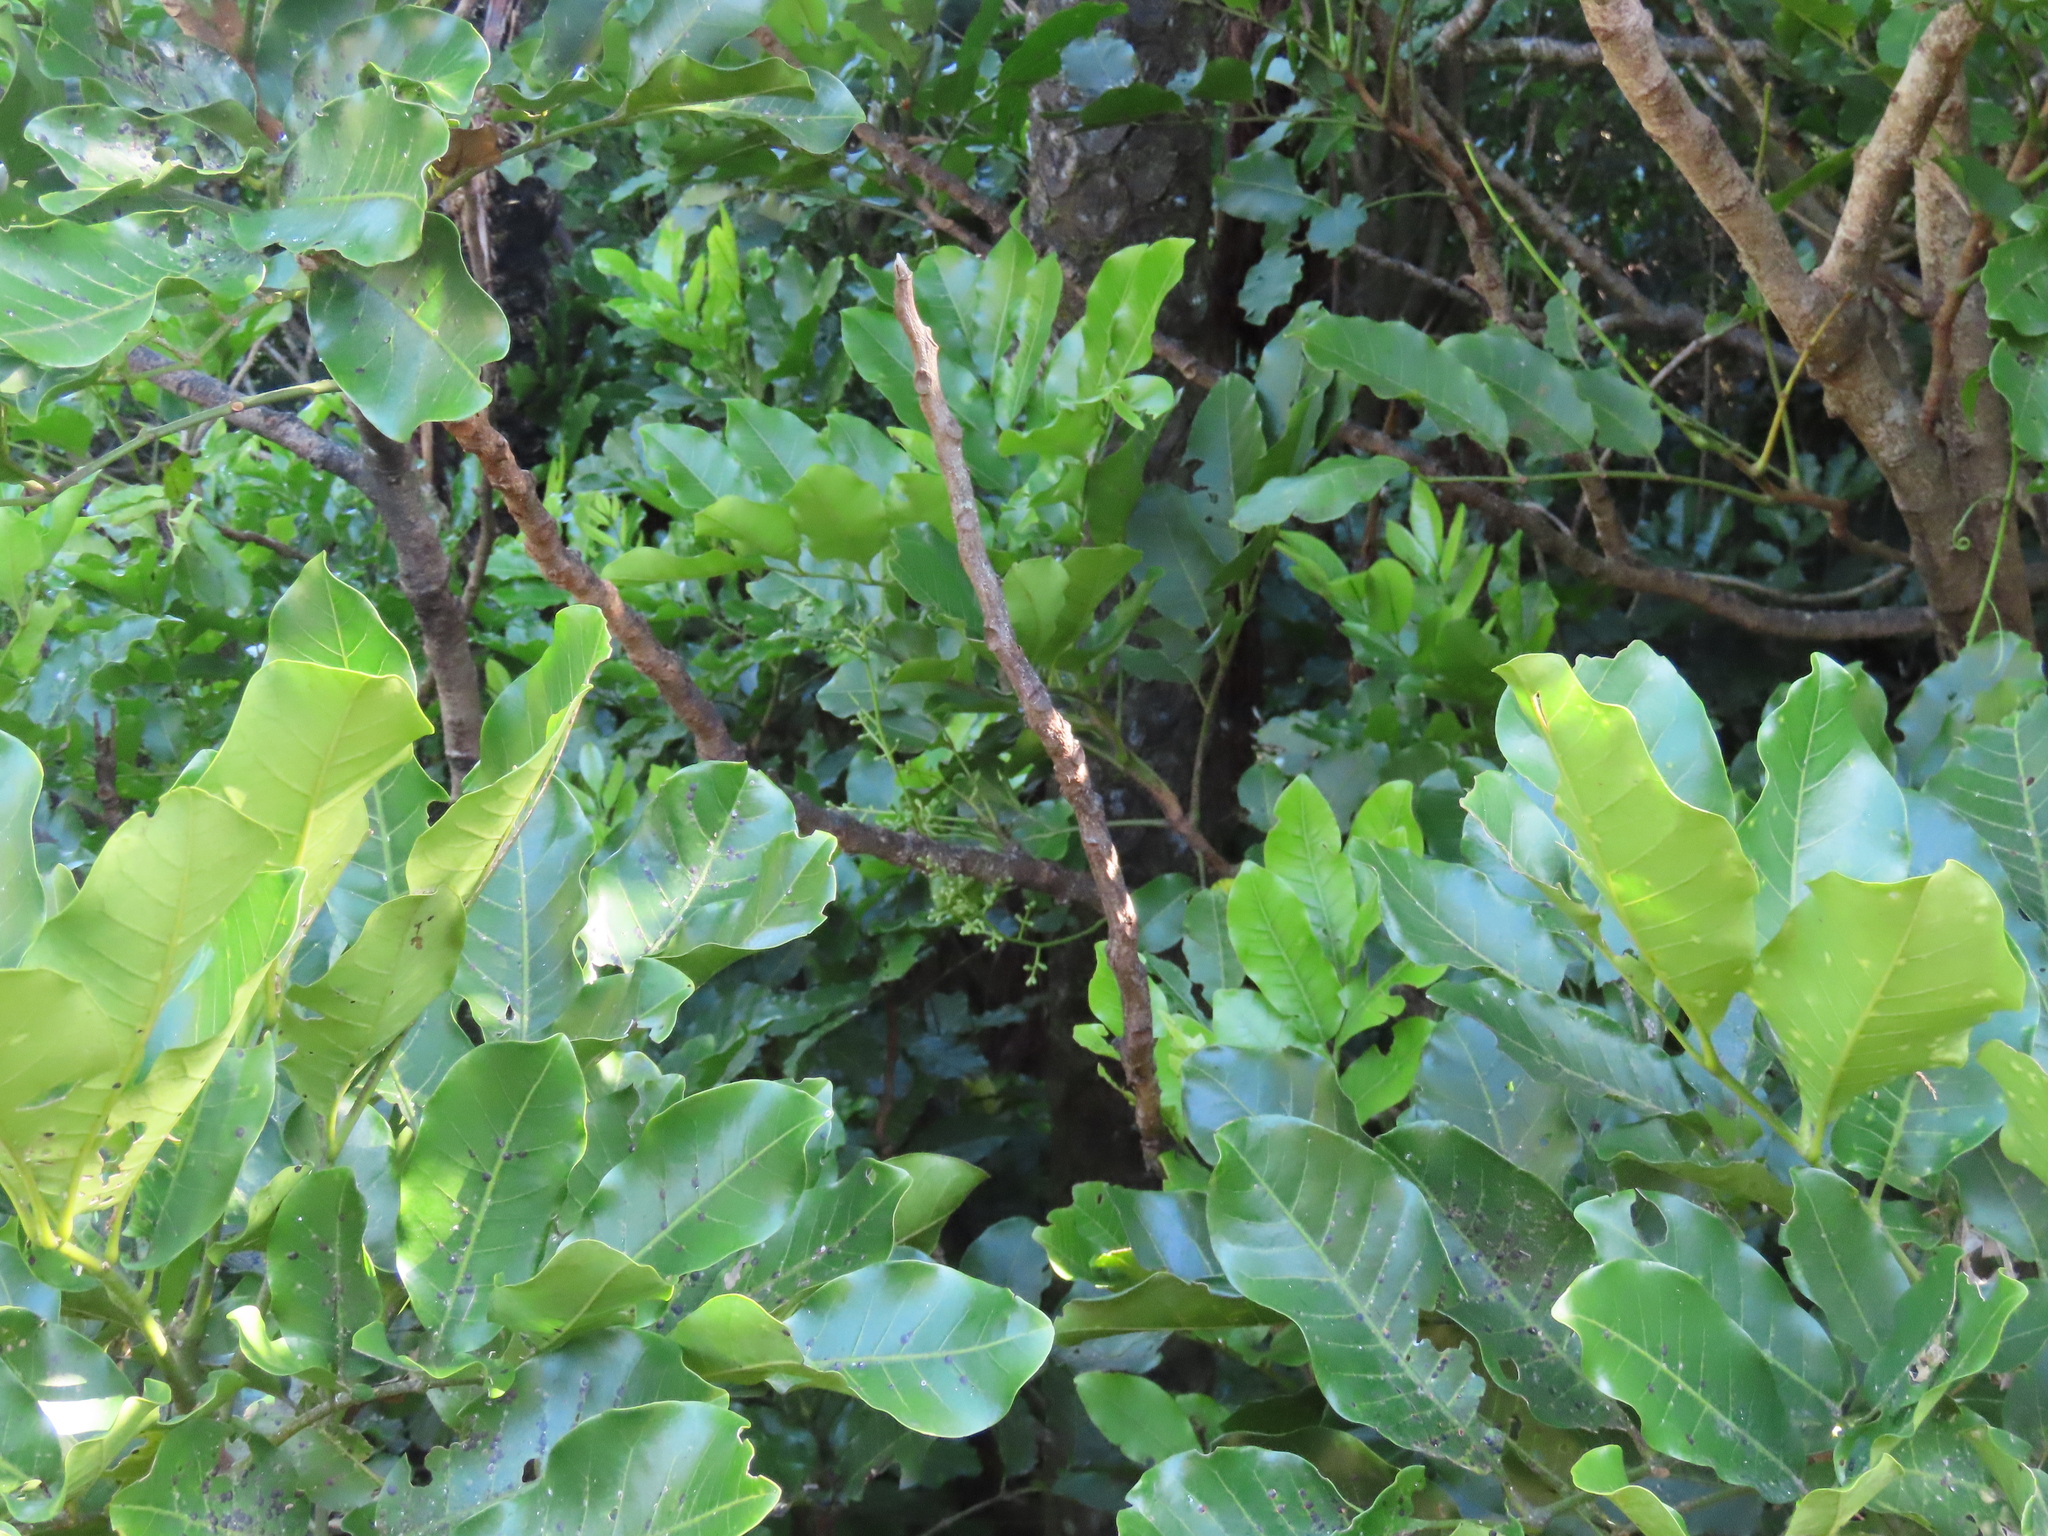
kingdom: Plantae
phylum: Tracheophyta
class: Magnoliopsida
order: Sapindales
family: Meliaceae
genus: Didymocheton
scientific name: Didymocheton spectabilis
